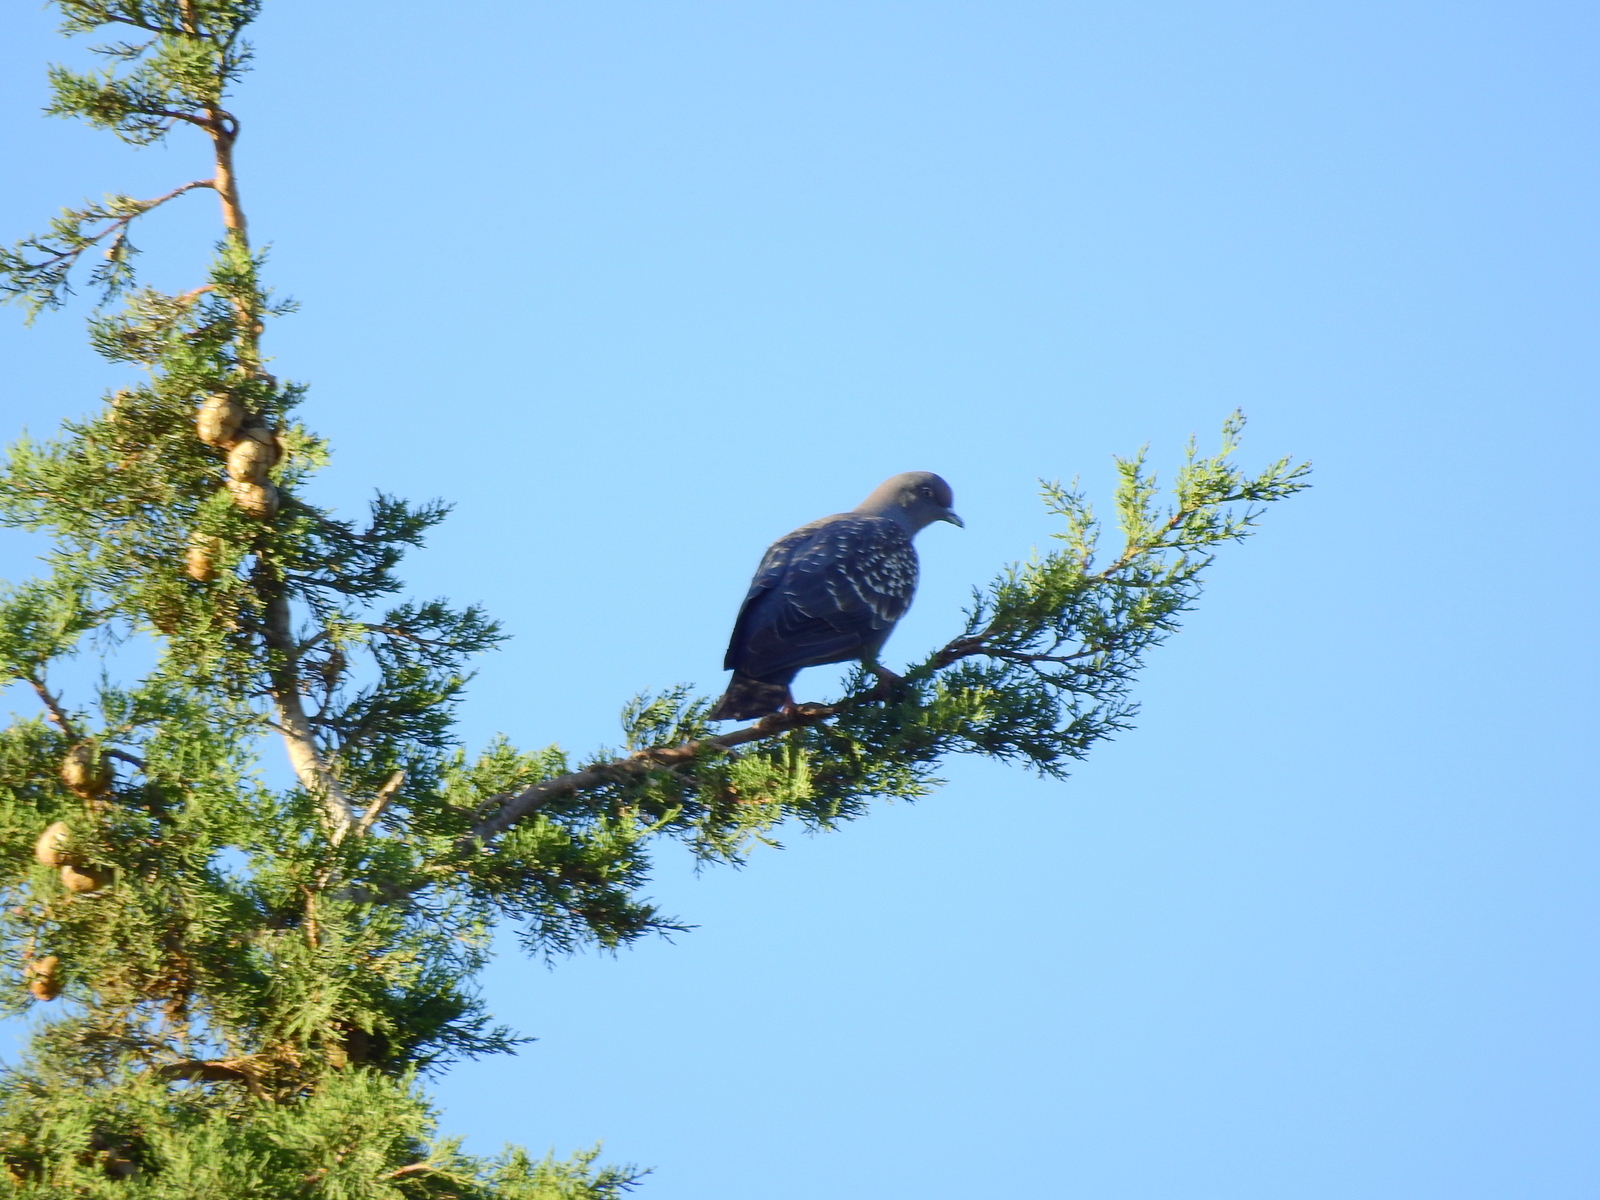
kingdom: Animalia
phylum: Chordata
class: Aves
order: Columbiformes
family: Columbidae
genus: Patagioenas
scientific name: Patagioenas maculosa
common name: Spot-winged pigeon
